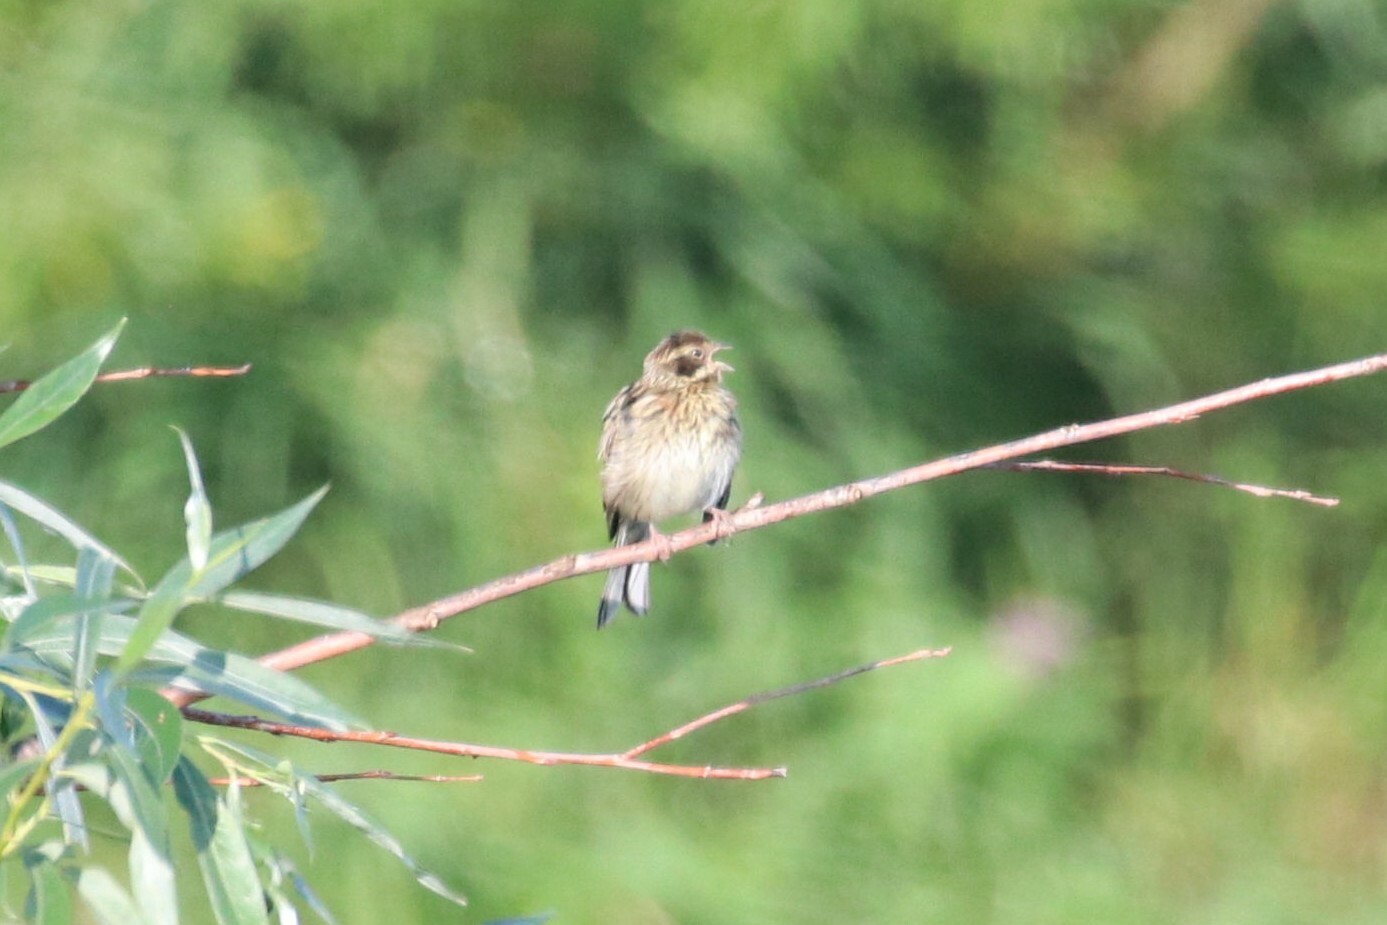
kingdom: Animalia
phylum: Chordata
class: Aves
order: Passeriformes
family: Emberizidae
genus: Emberiza
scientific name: Emberiza schoeniclus
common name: Reed bunting
